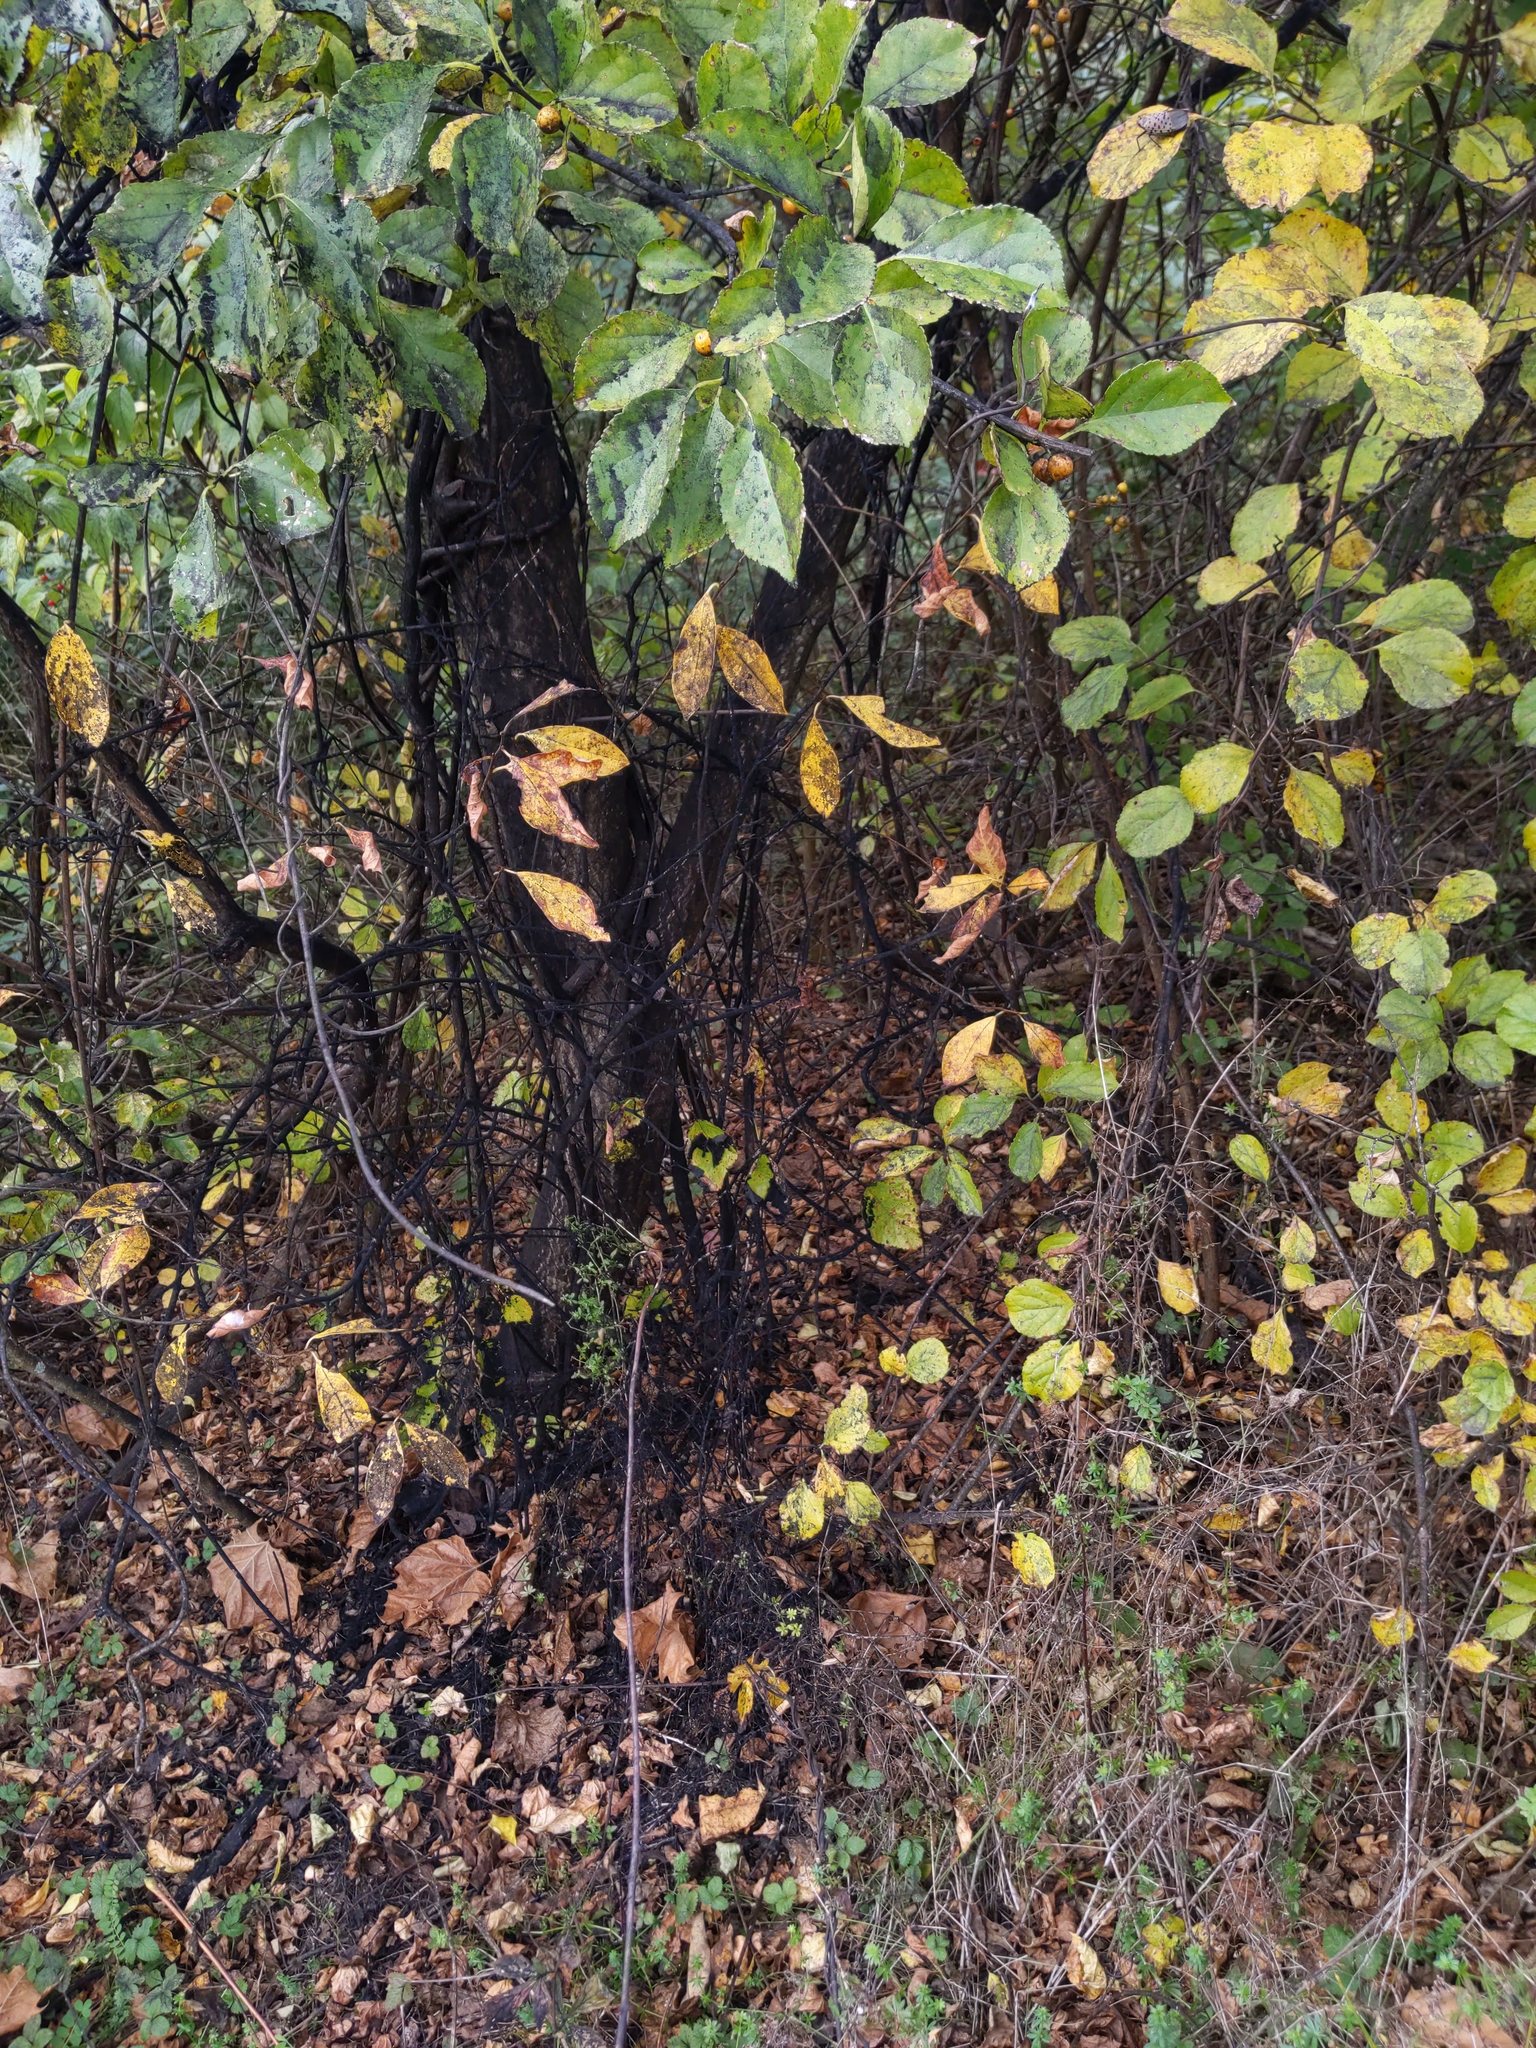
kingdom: Animalia
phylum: Arthropoda
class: Insecta
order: Hemiptera
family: Fulgoridae
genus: Lycorma
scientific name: Lycorma delicatula
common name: Spotted lanternfly
